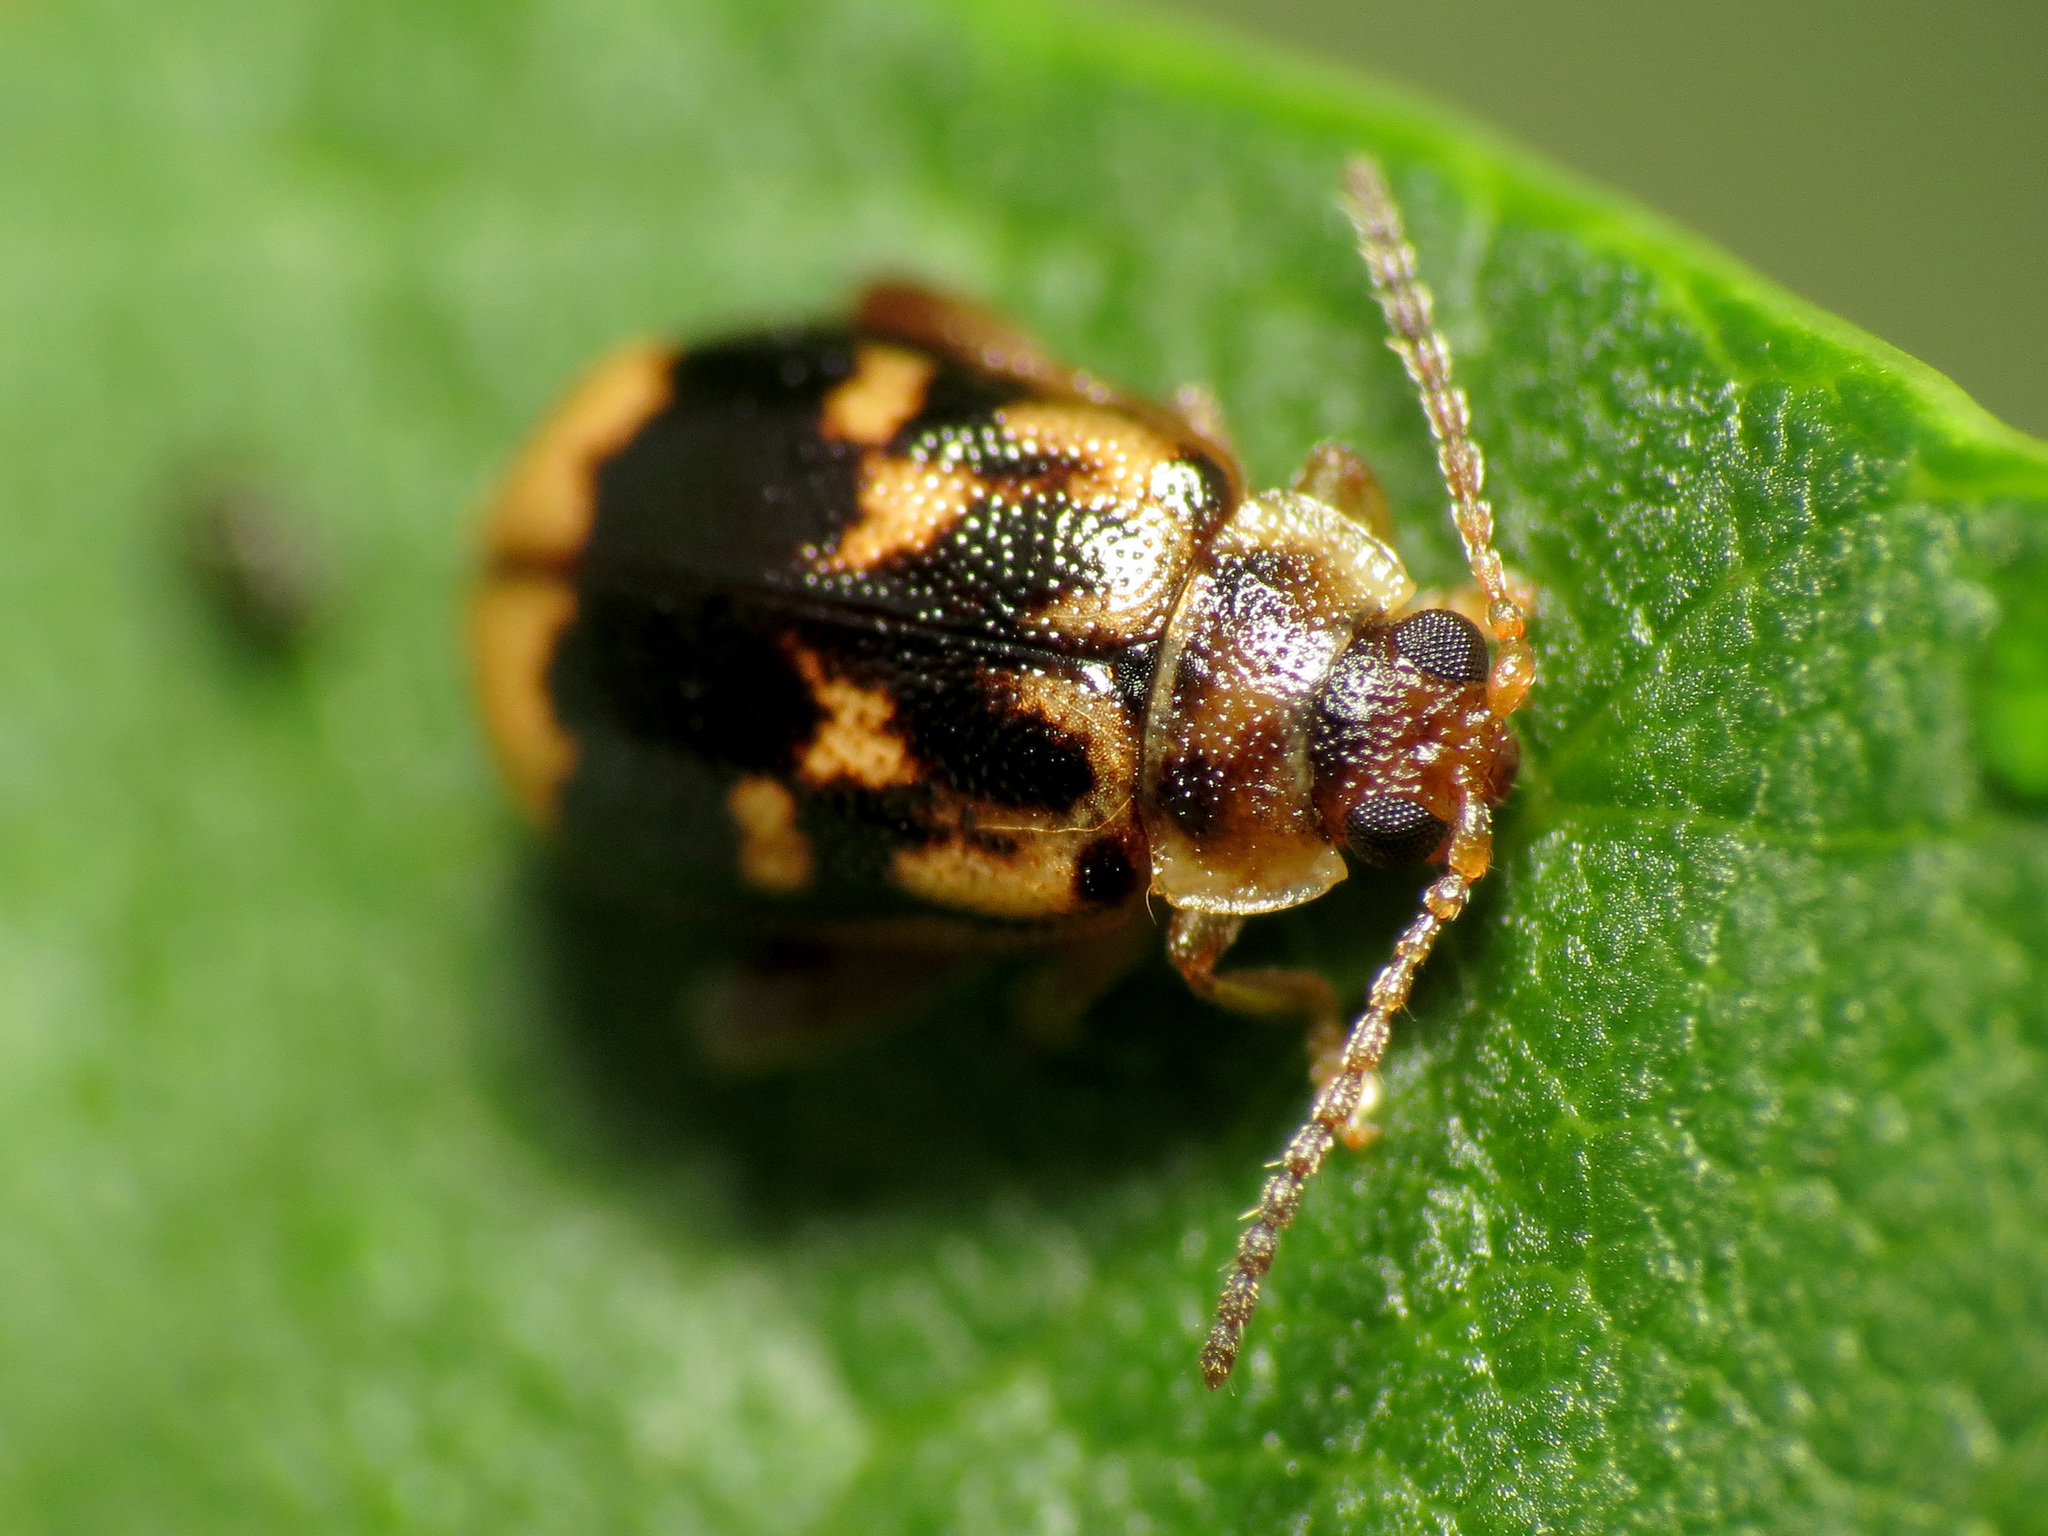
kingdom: Animalia
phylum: Arthropoda
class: Insecta
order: Coleoptera
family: Chrysomelidae
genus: Capraita
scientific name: Capraita sexmaculata
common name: Charlie brown flea beetle
